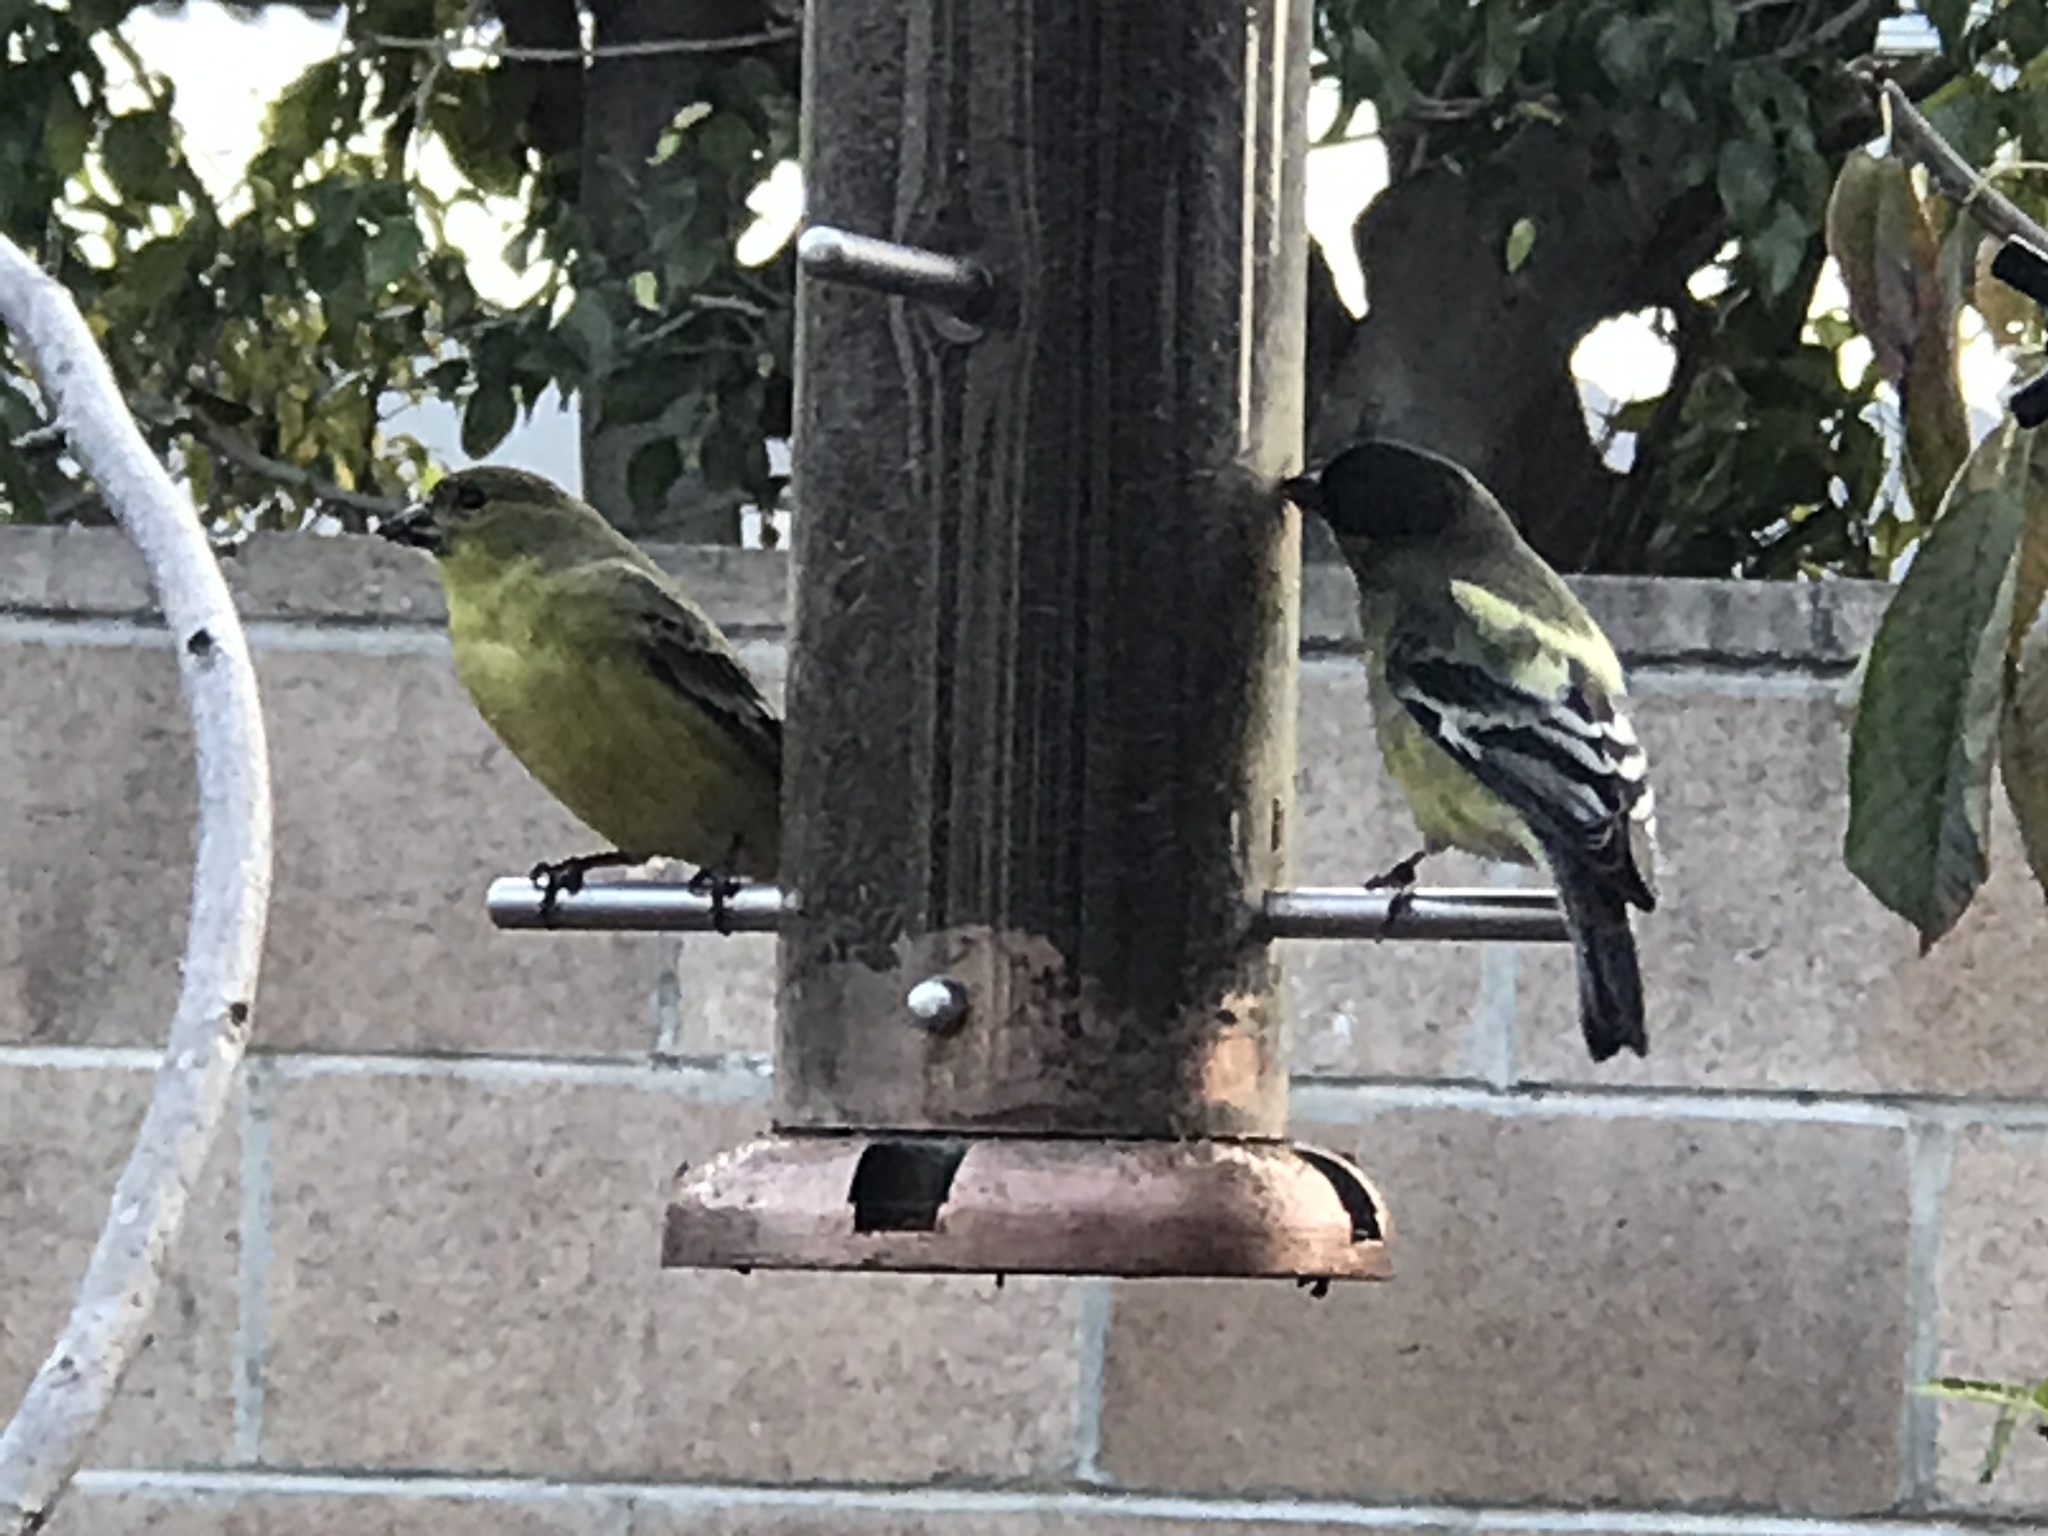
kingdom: Animalia
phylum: Chordata
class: Aves
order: Passeriformes
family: Fringillidae
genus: Spinus
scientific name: Spinus psaltria
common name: Lesser goldfinch
